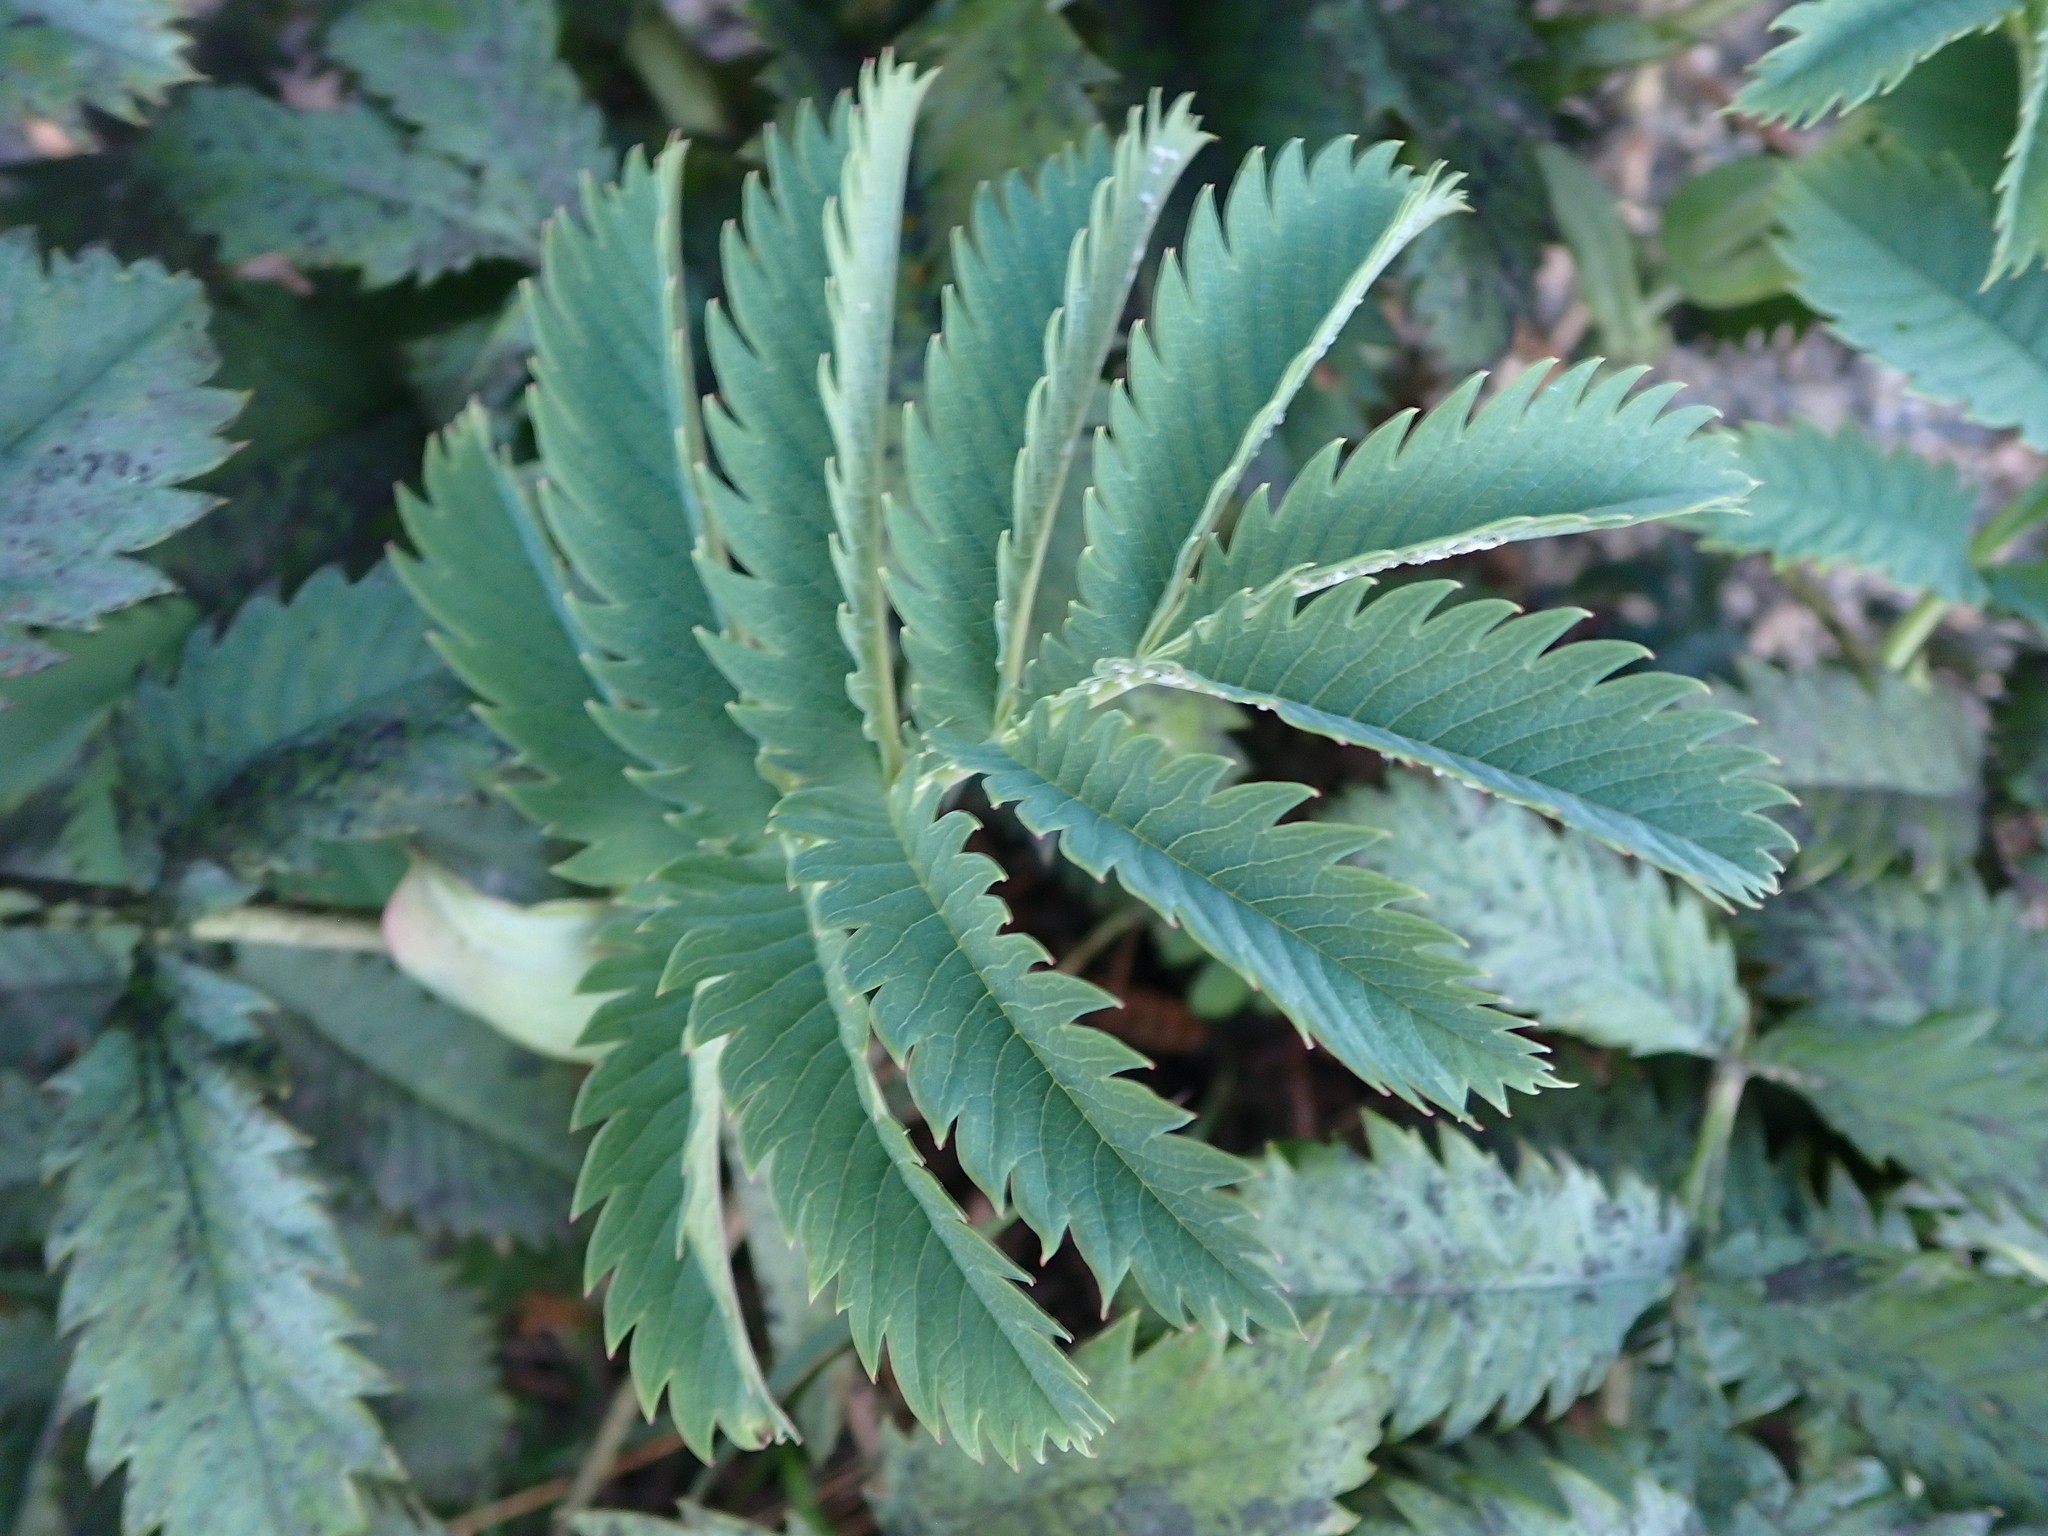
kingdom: Plantae
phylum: Tracheophyta
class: Magnoliopsida
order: Geraniales
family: Melianthaceae
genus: Melianthus
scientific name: Melianthus major
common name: Honey-flower
